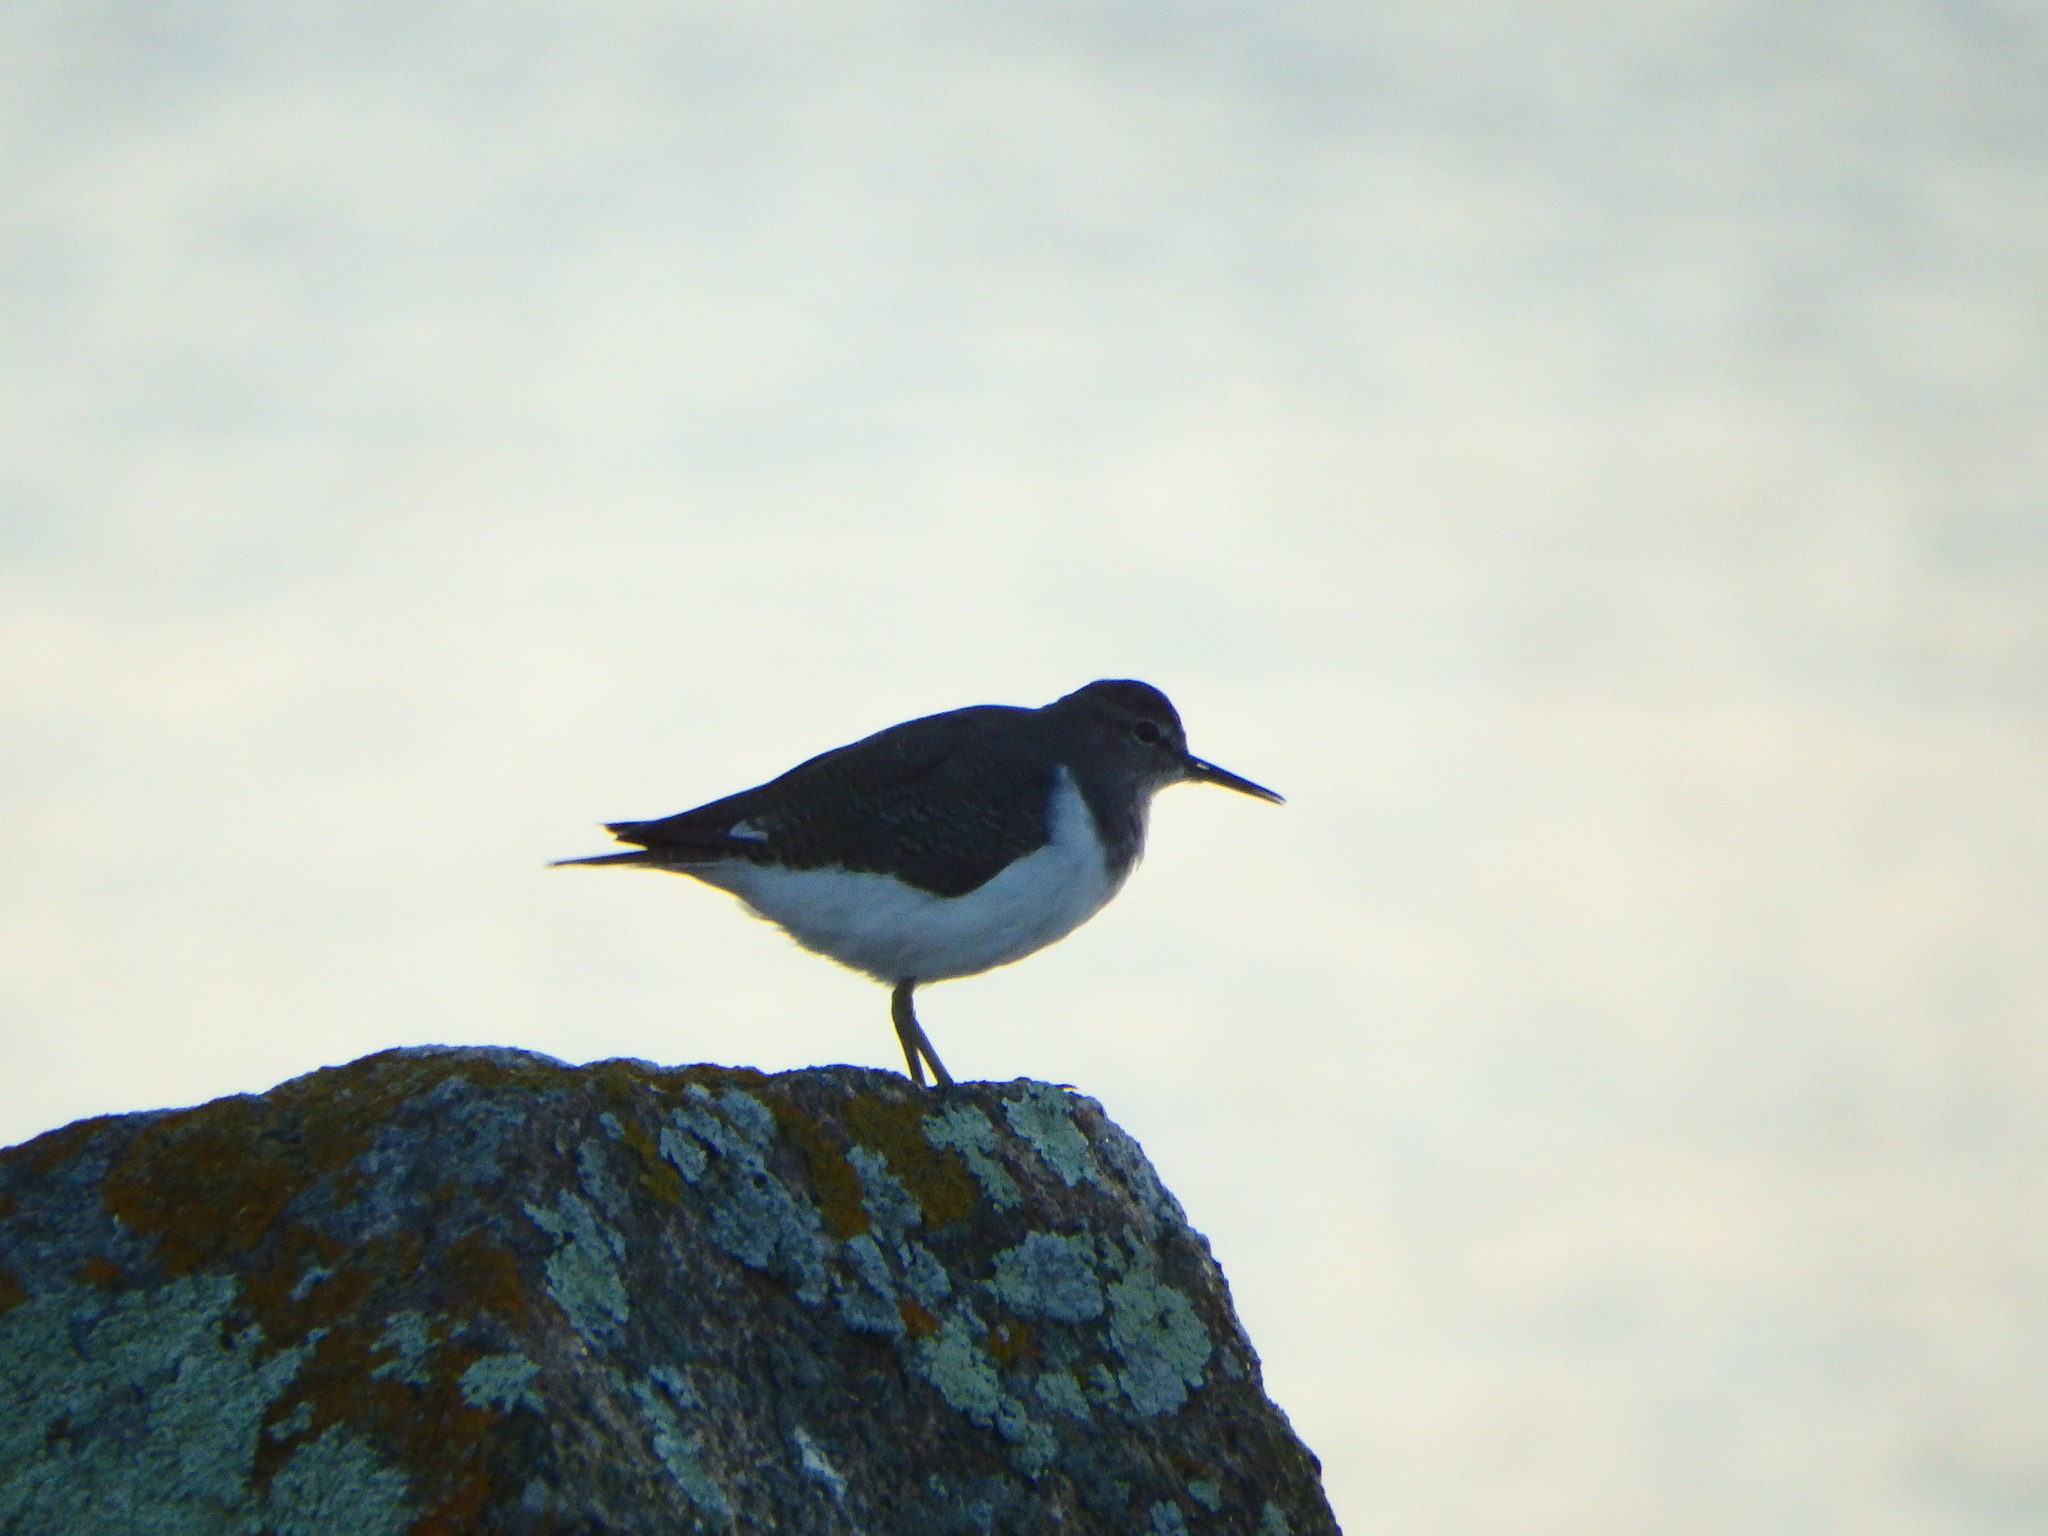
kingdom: Animalia
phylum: Chordata
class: Aves
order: Charadriiformes
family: Scolopacidae
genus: Actitis
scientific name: Actitis hypoleucos
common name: Common sandpiper
